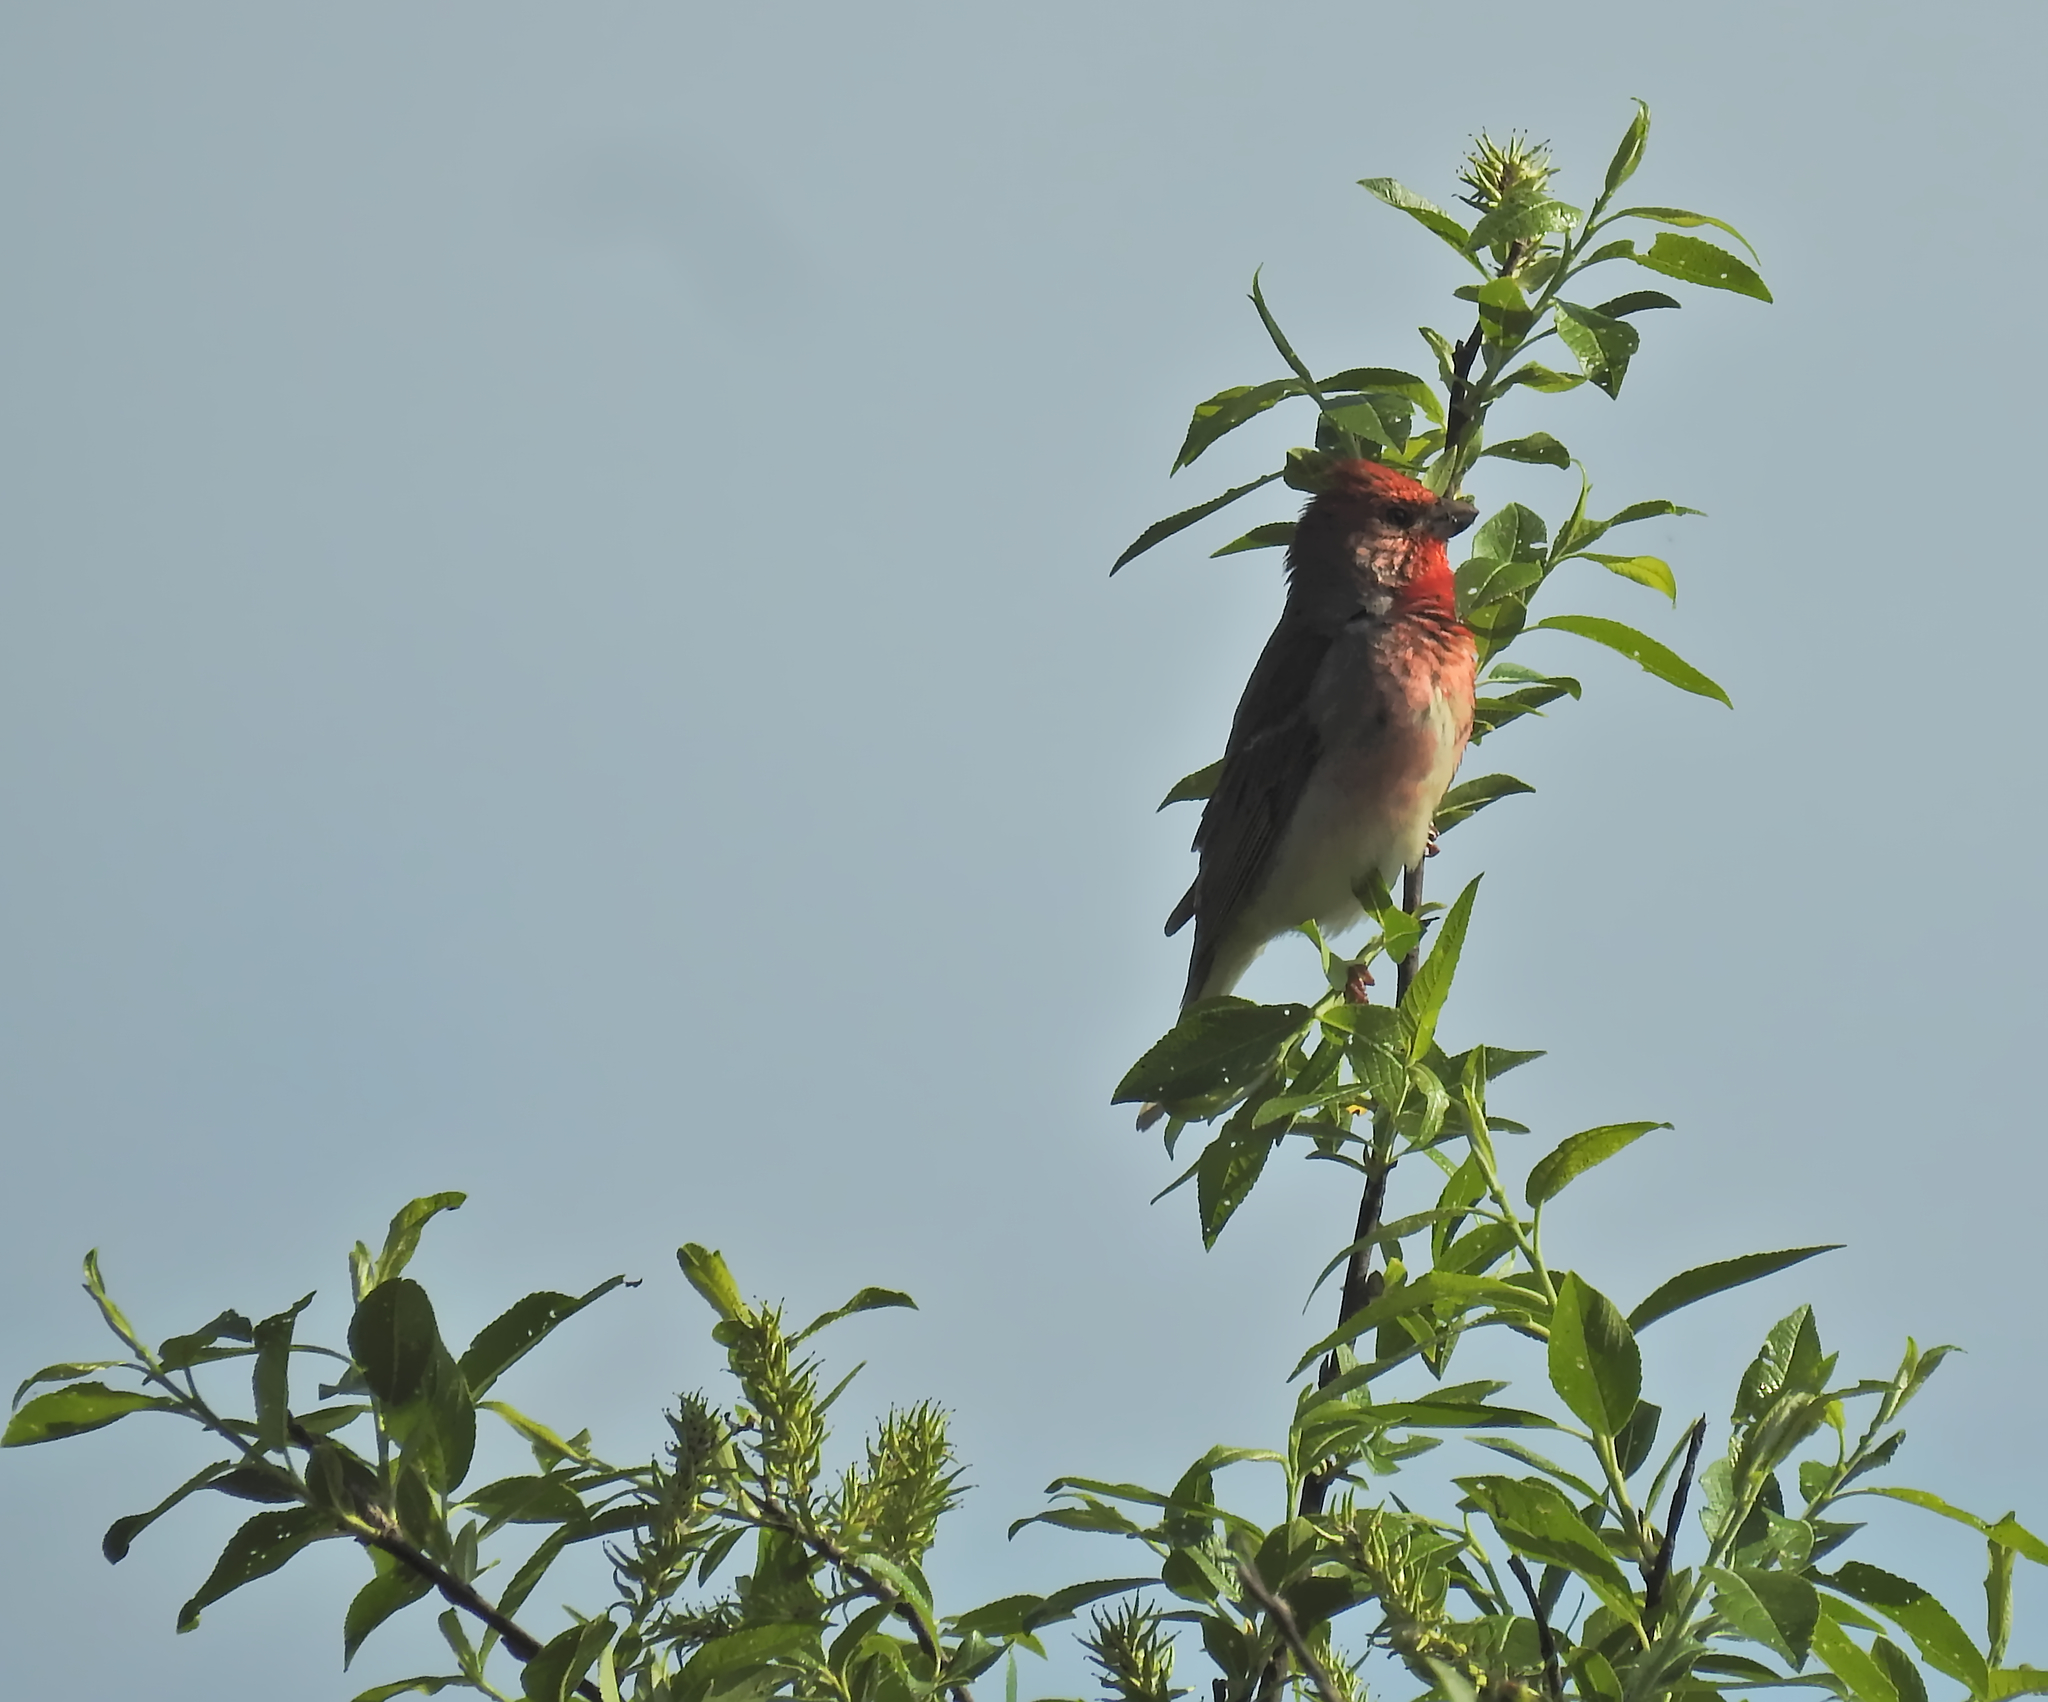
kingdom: Animalia
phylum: Chordata
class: Aves
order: Passeriformes
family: Fringillidae
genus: Carpodacus
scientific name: Carpodacus erythrinus
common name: Common rosefinch
